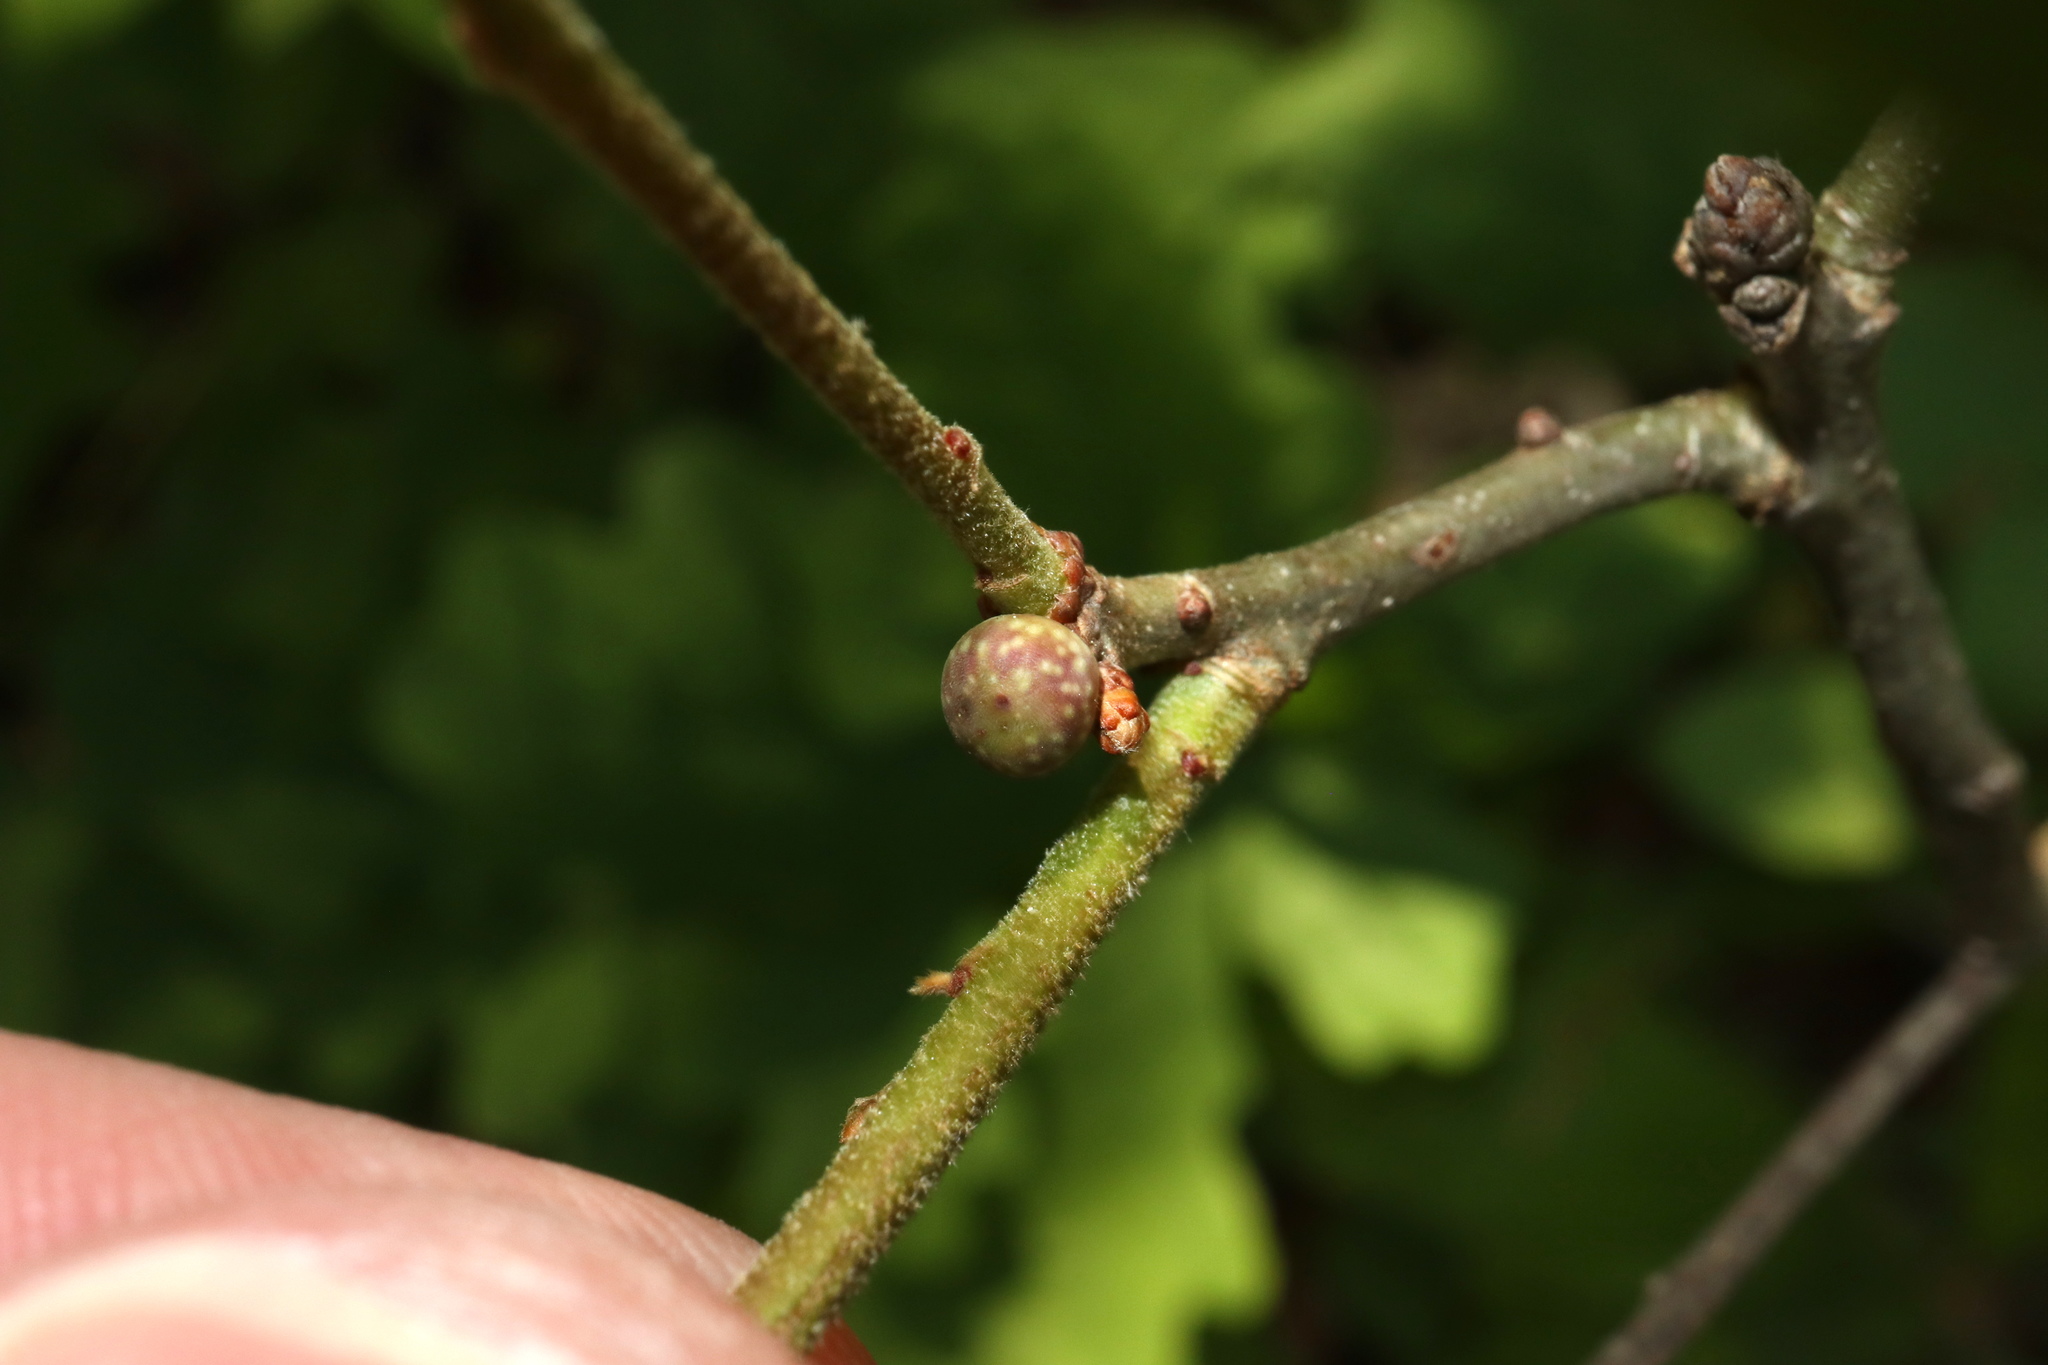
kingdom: Animalia
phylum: Arthropoda
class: Insecta
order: Hymenoptera
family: Cynipidae
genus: Andricus
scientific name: Andricus
